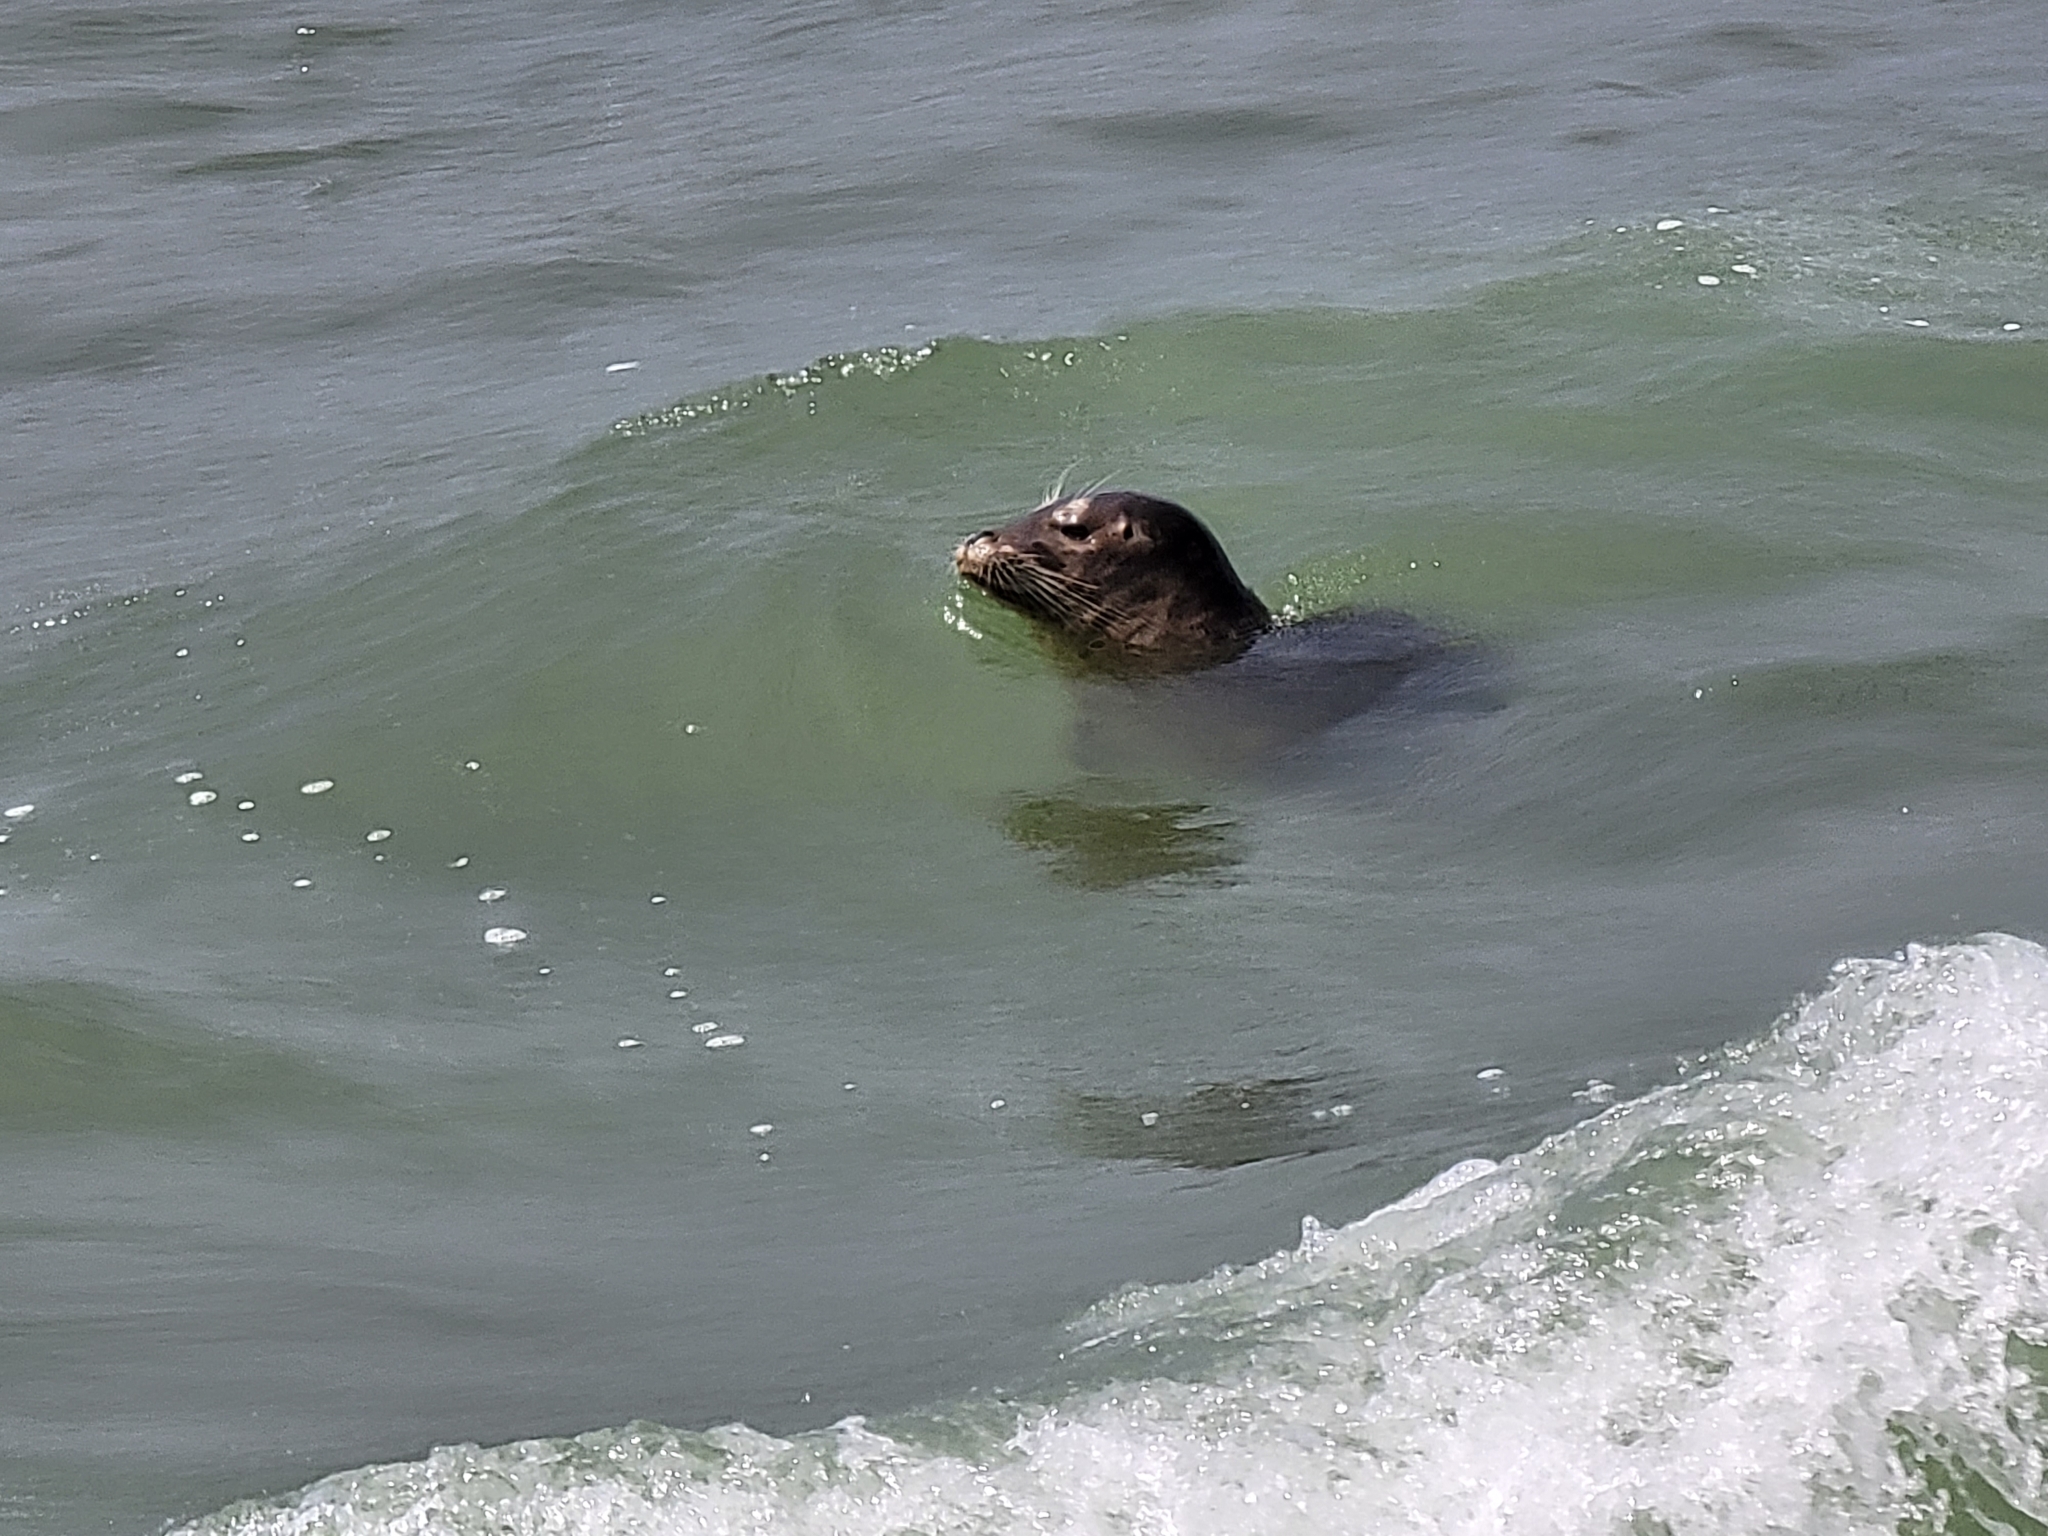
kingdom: Animalia
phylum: Chordata
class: Mammalia
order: Carnivora
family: Phocidae
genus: Phoca
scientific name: Phoca vitulina
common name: Harbor seal
